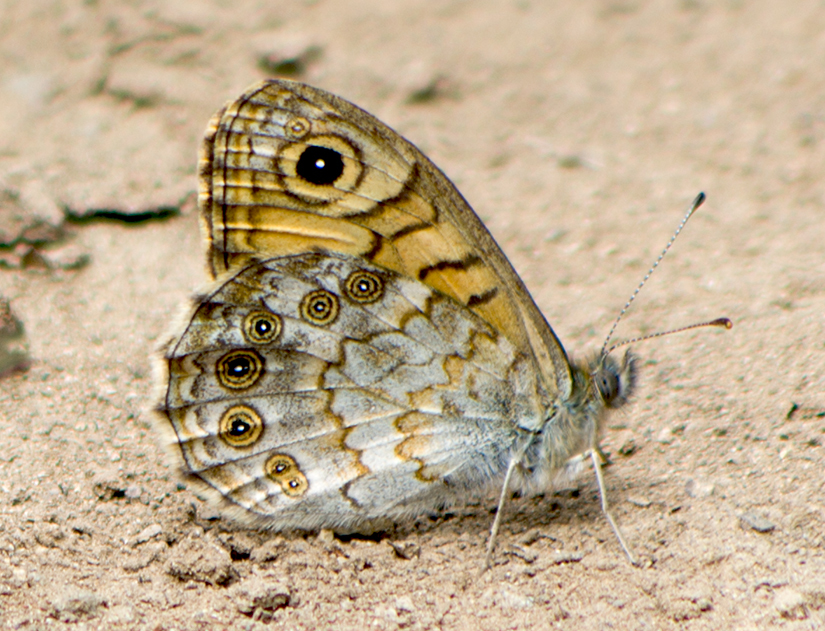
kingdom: Animalia
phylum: Arthropoda
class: Insecta
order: Lepidoptera
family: Nymphalidae
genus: Pararge
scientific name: Pararge Lasiommata megera
